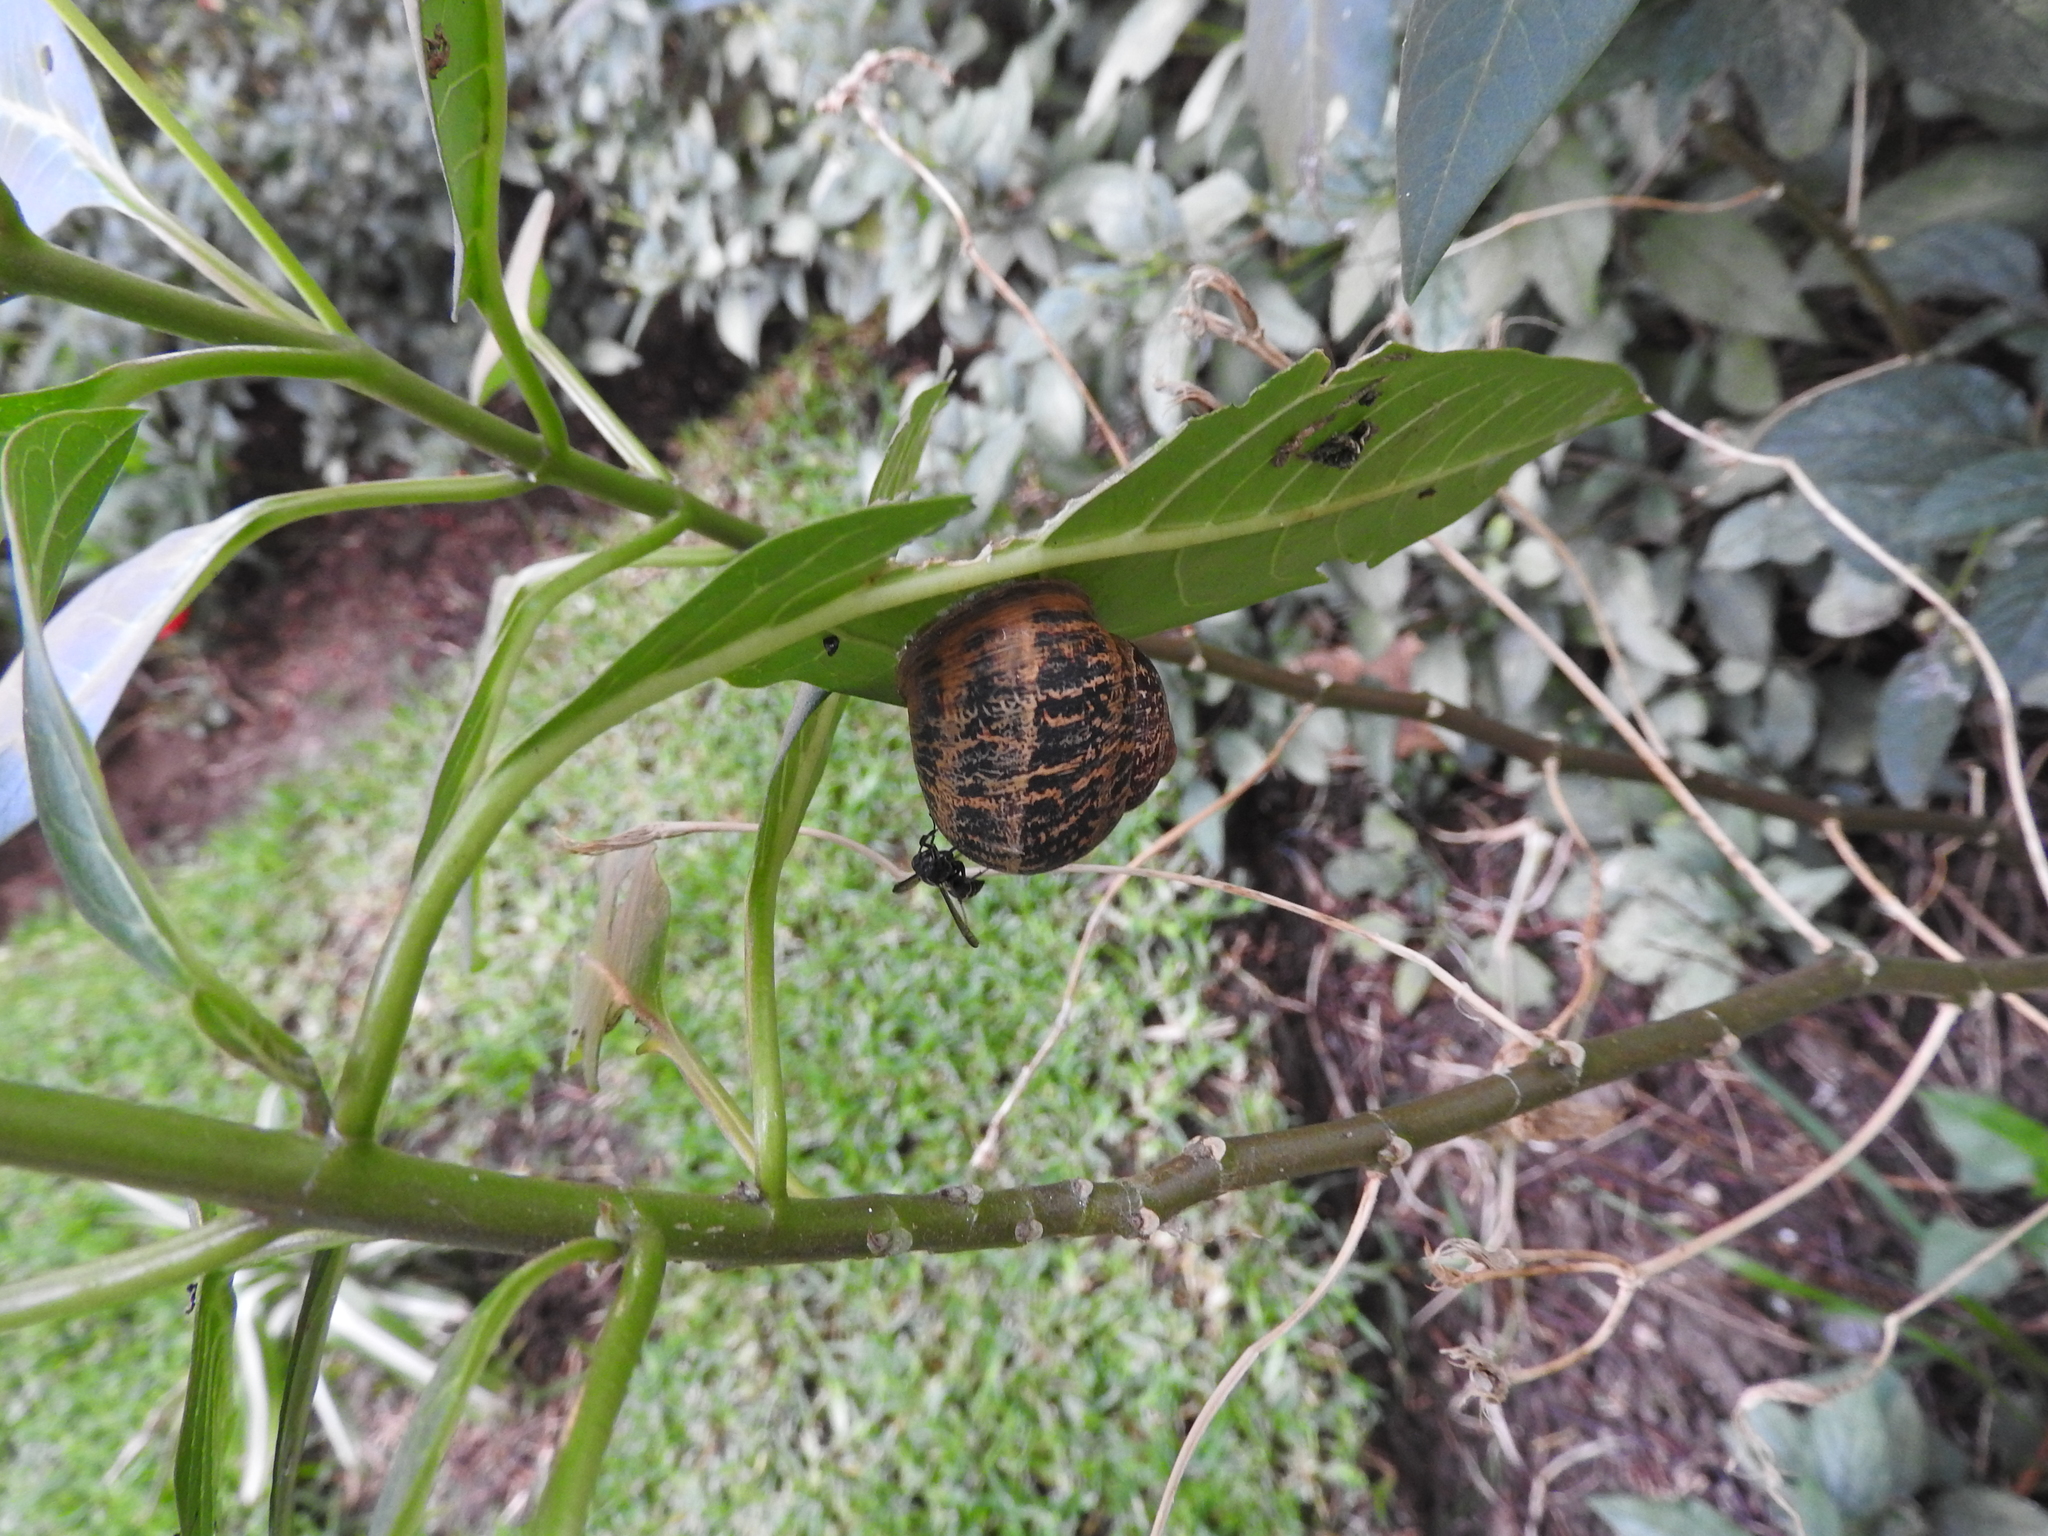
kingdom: Animalia
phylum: Mollusca
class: Gastropoda
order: Stylommatophora
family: Helicidae
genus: Cornu
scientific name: Cornu aspersum
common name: Brown garden snail
